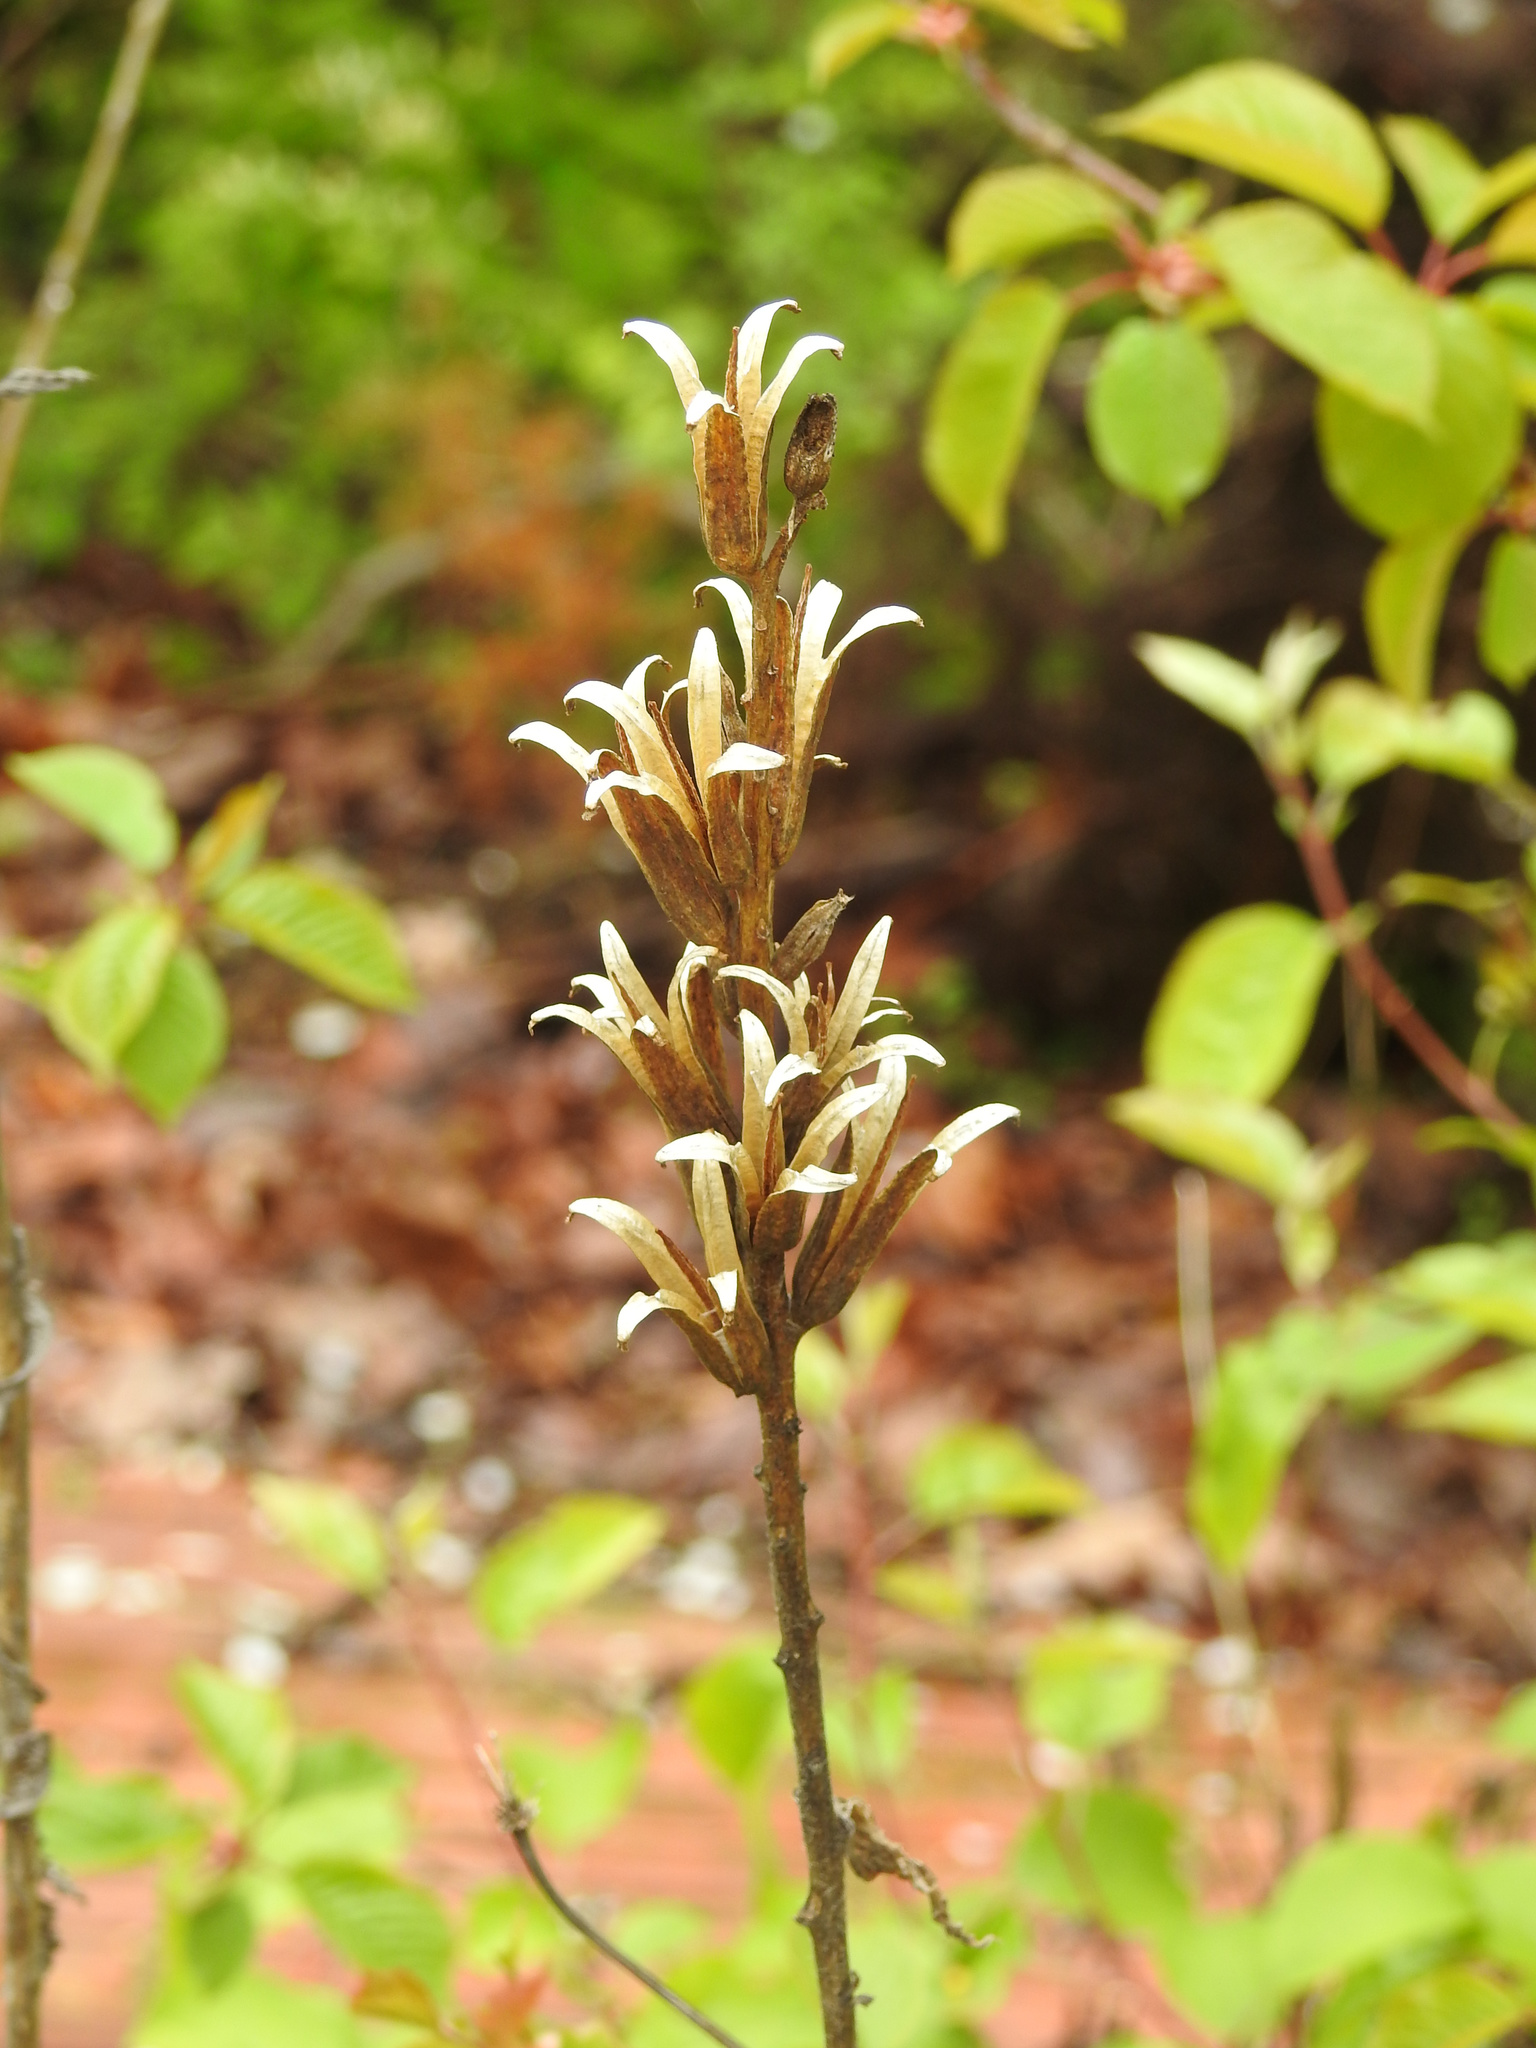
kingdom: Plantae
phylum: Tracheophyta
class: Magnoliopsida
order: Myrtales
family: Onagraceae
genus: Oenothera
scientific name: Oenothera biennis
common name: Common evening-primrose
